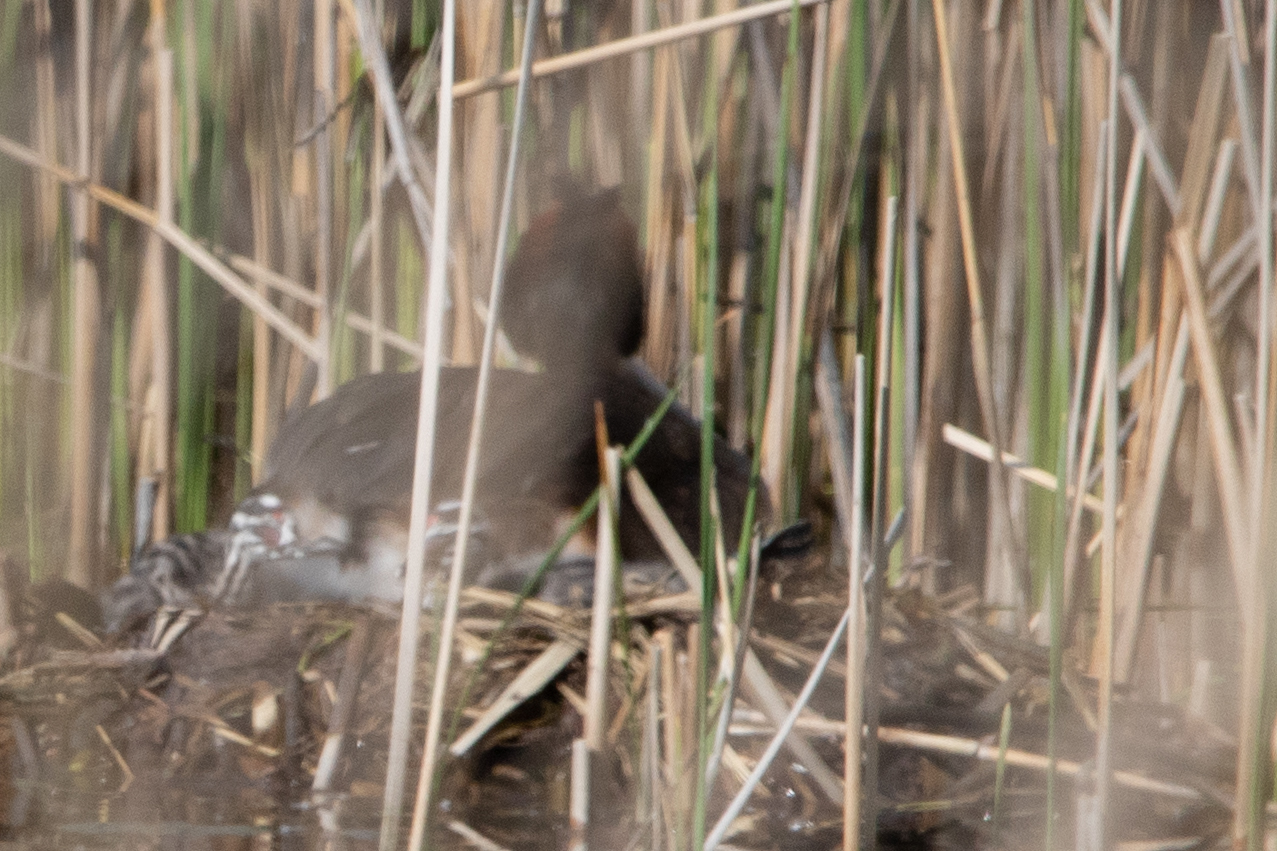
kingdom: Animalia
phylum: Chordata
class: Aves
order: Podicipediformes
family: Podicipedidae
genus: Podiceps
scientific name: Podiceps cristatus
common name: Great crested grebe
